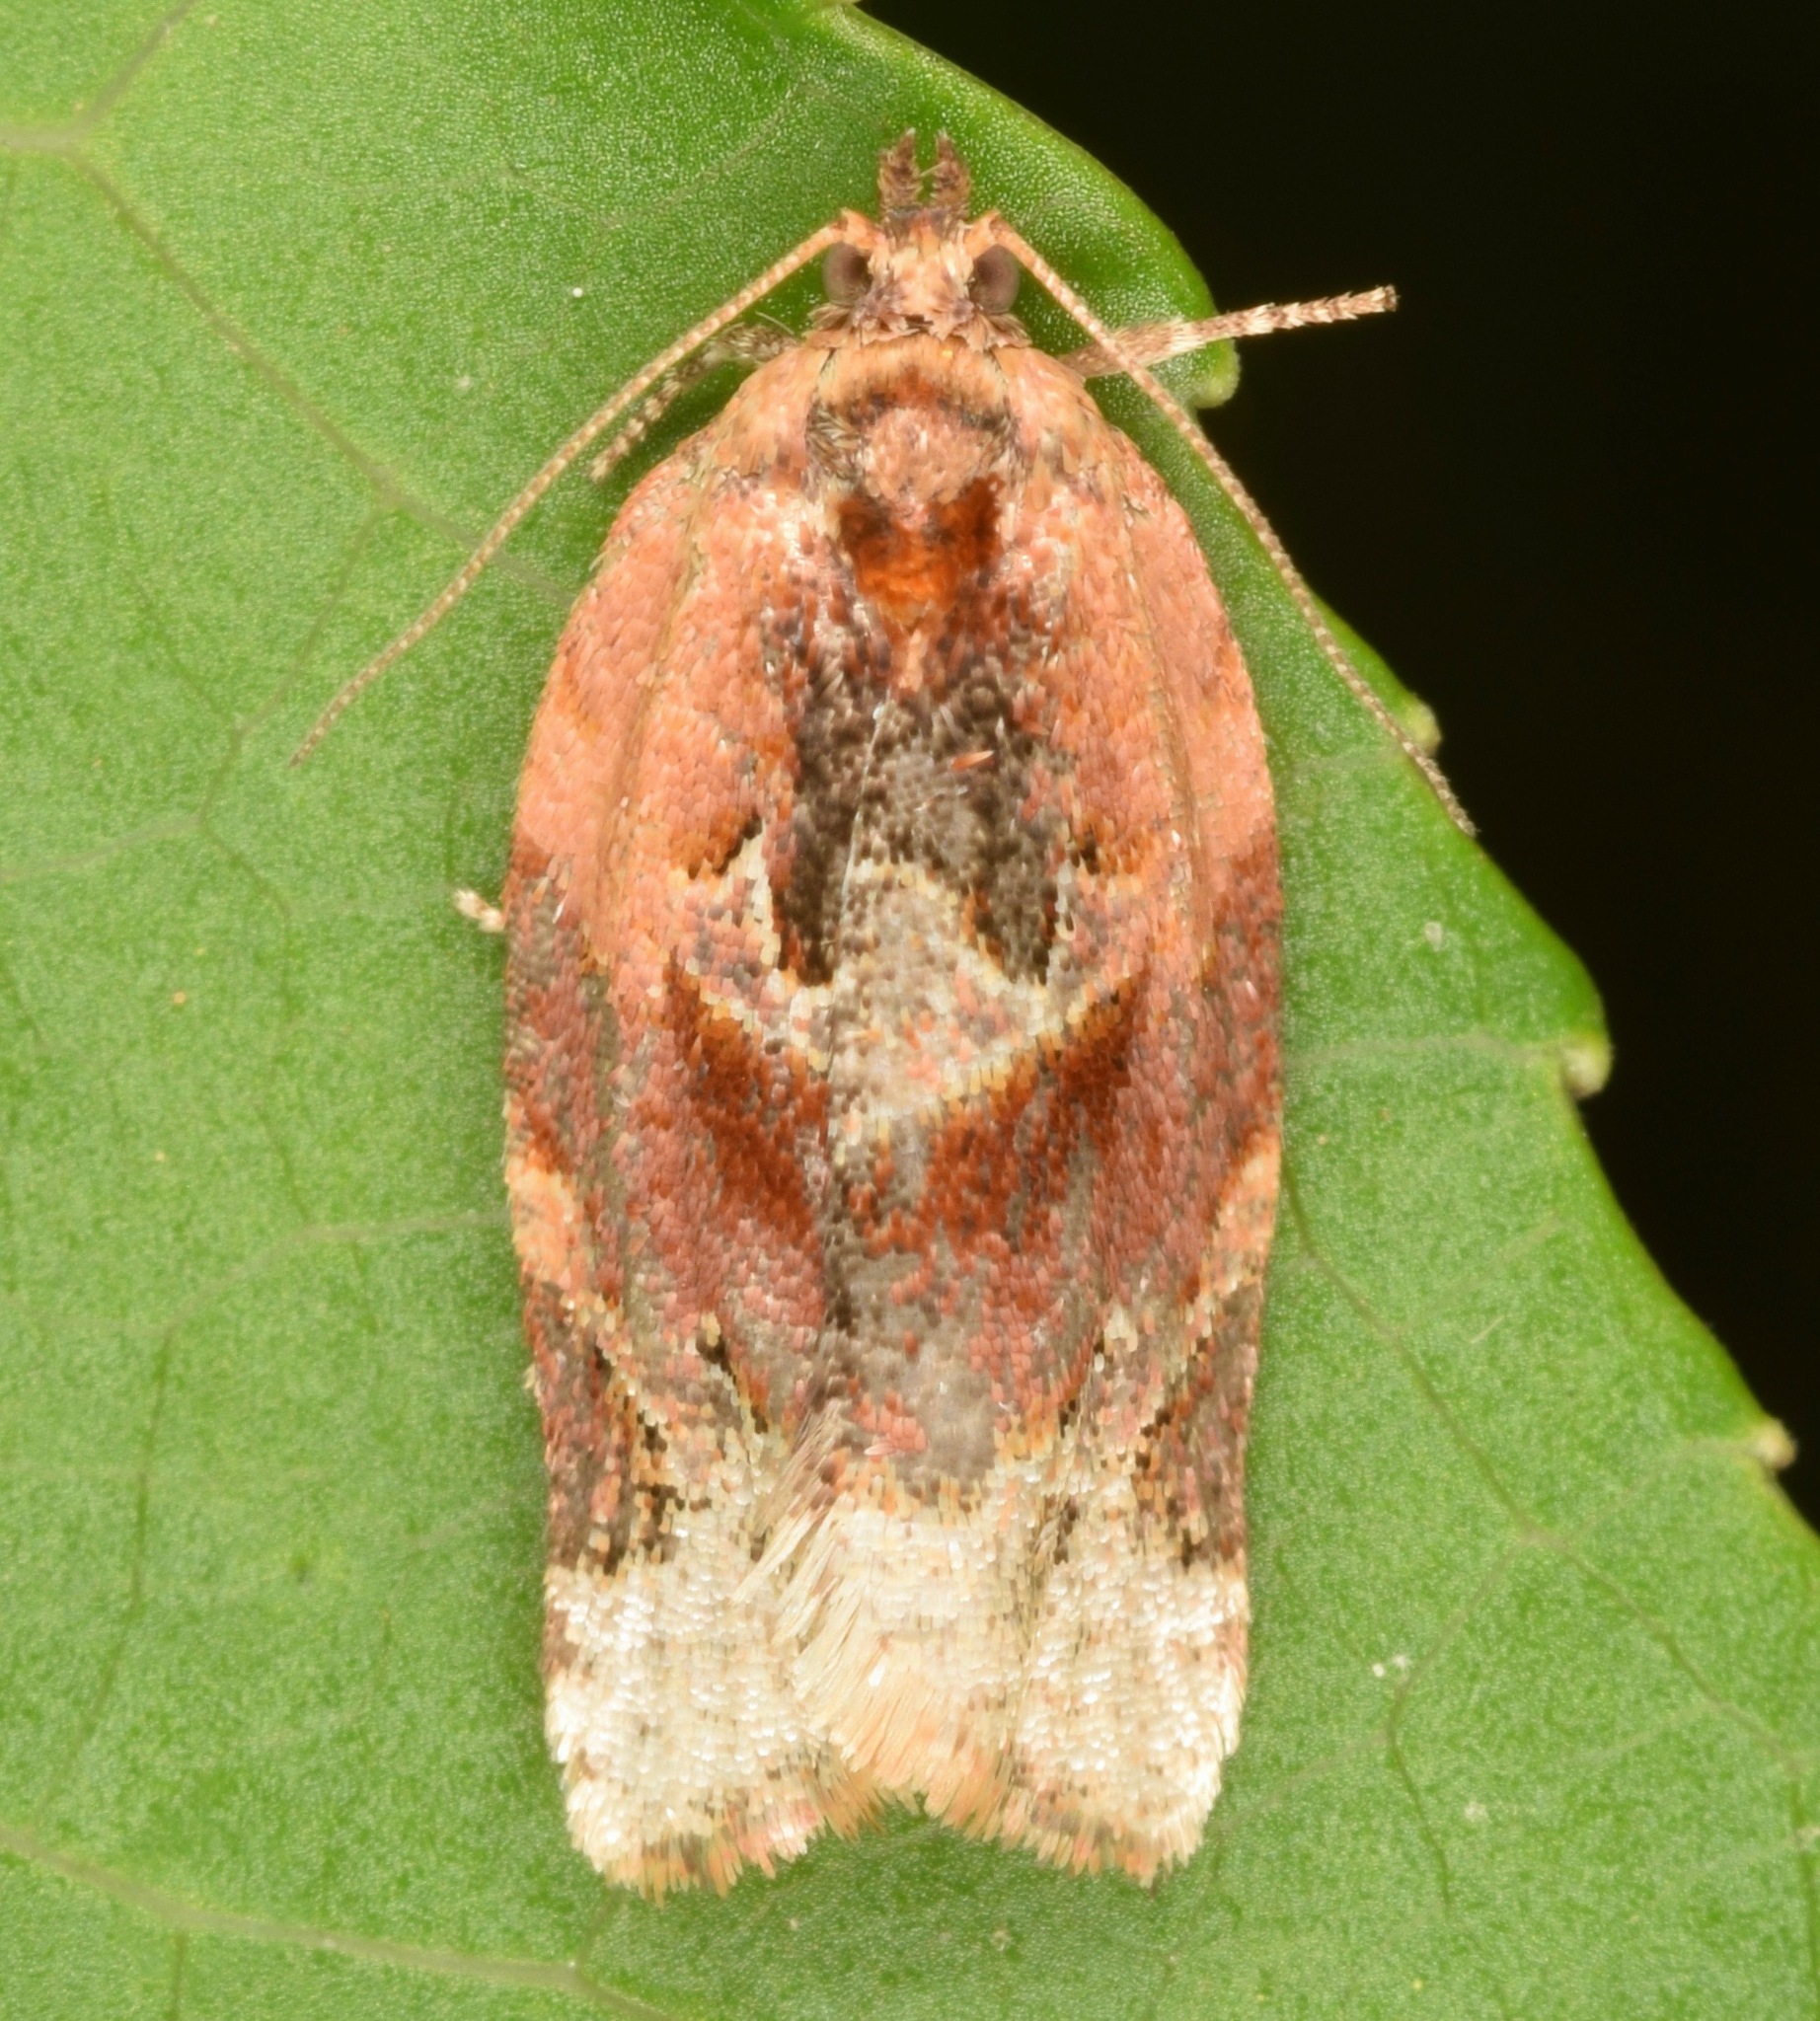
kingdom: Animalia
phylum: Arthropoda
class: Insecta
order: Lepidoptera
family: Tortricidae
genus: Argyrotaenia
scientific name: Argyrotaenia velutinana
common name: Red-banded leafroller moth
